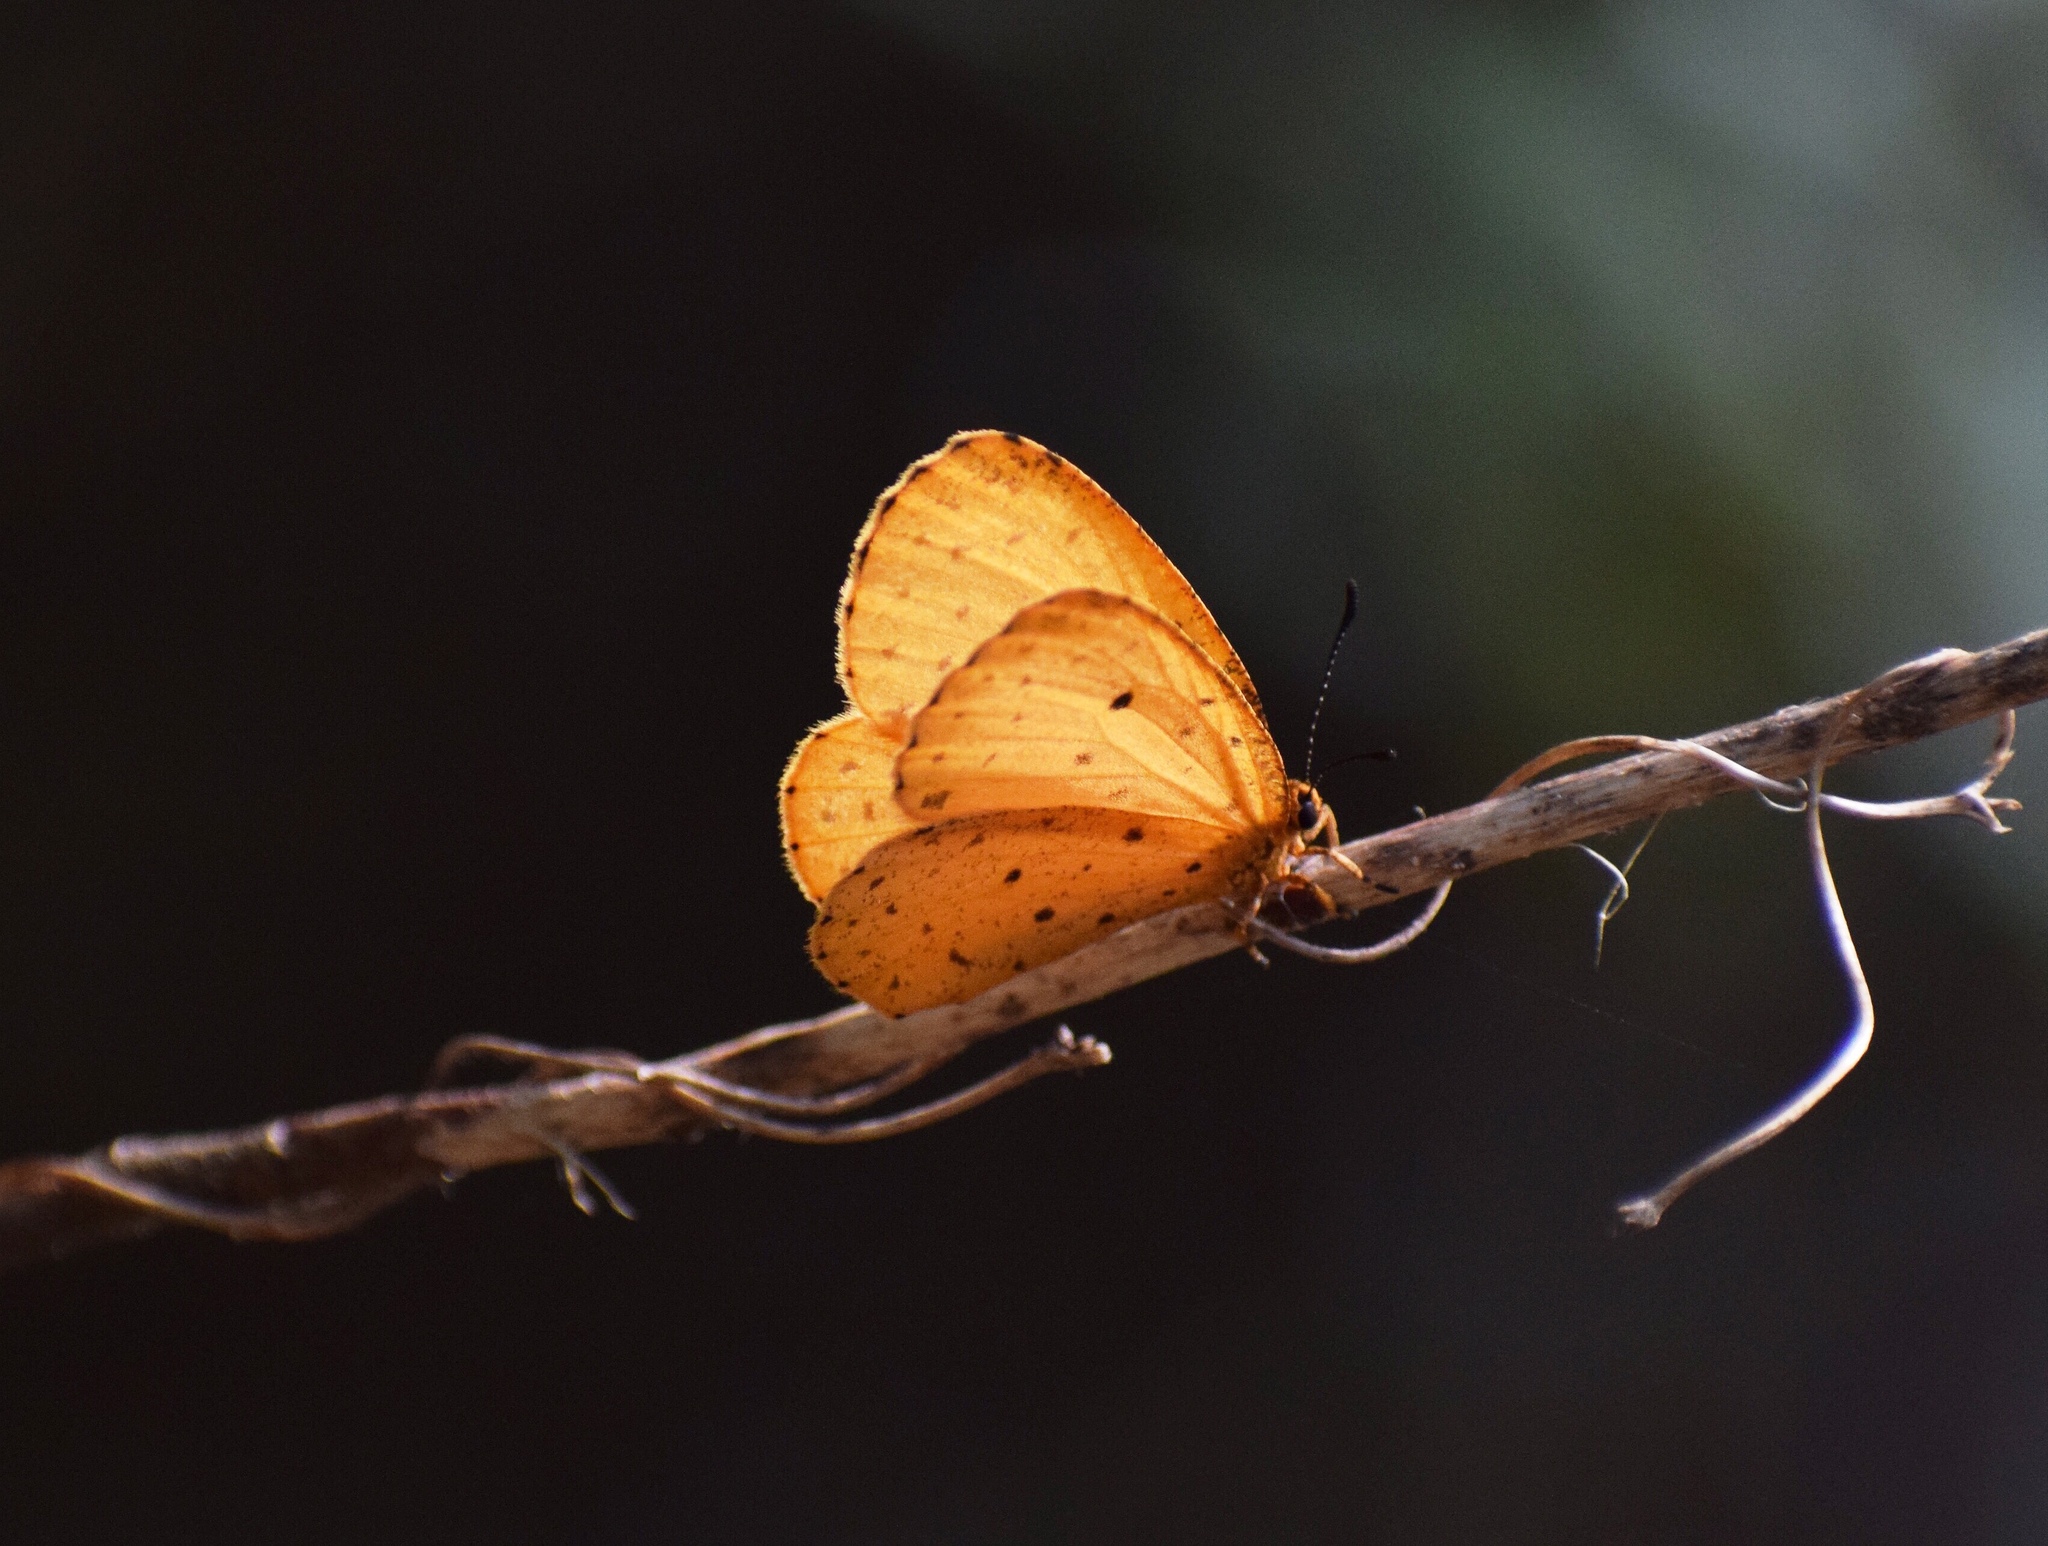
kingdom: Animalia
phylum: Arthropoda
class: Insecta
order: Lepidoptera
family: Lycaenidae
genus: Pentila
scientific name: Pentila tropicalis
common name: Spotted buff
